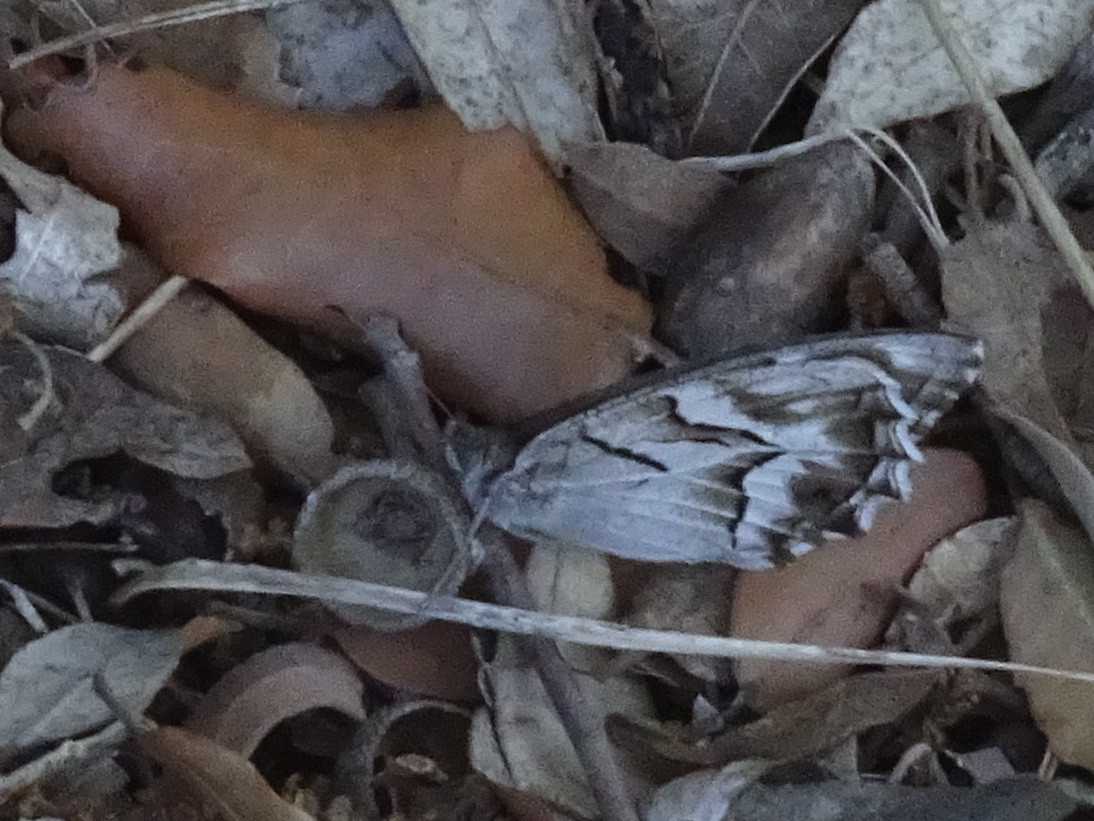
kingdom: Animalia
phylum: Arthropoda
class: Insecta
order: Lepidoptera
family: Nymphalidae
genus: Hipparchia
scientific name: Hipparchia fidia
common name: Striped grayling
